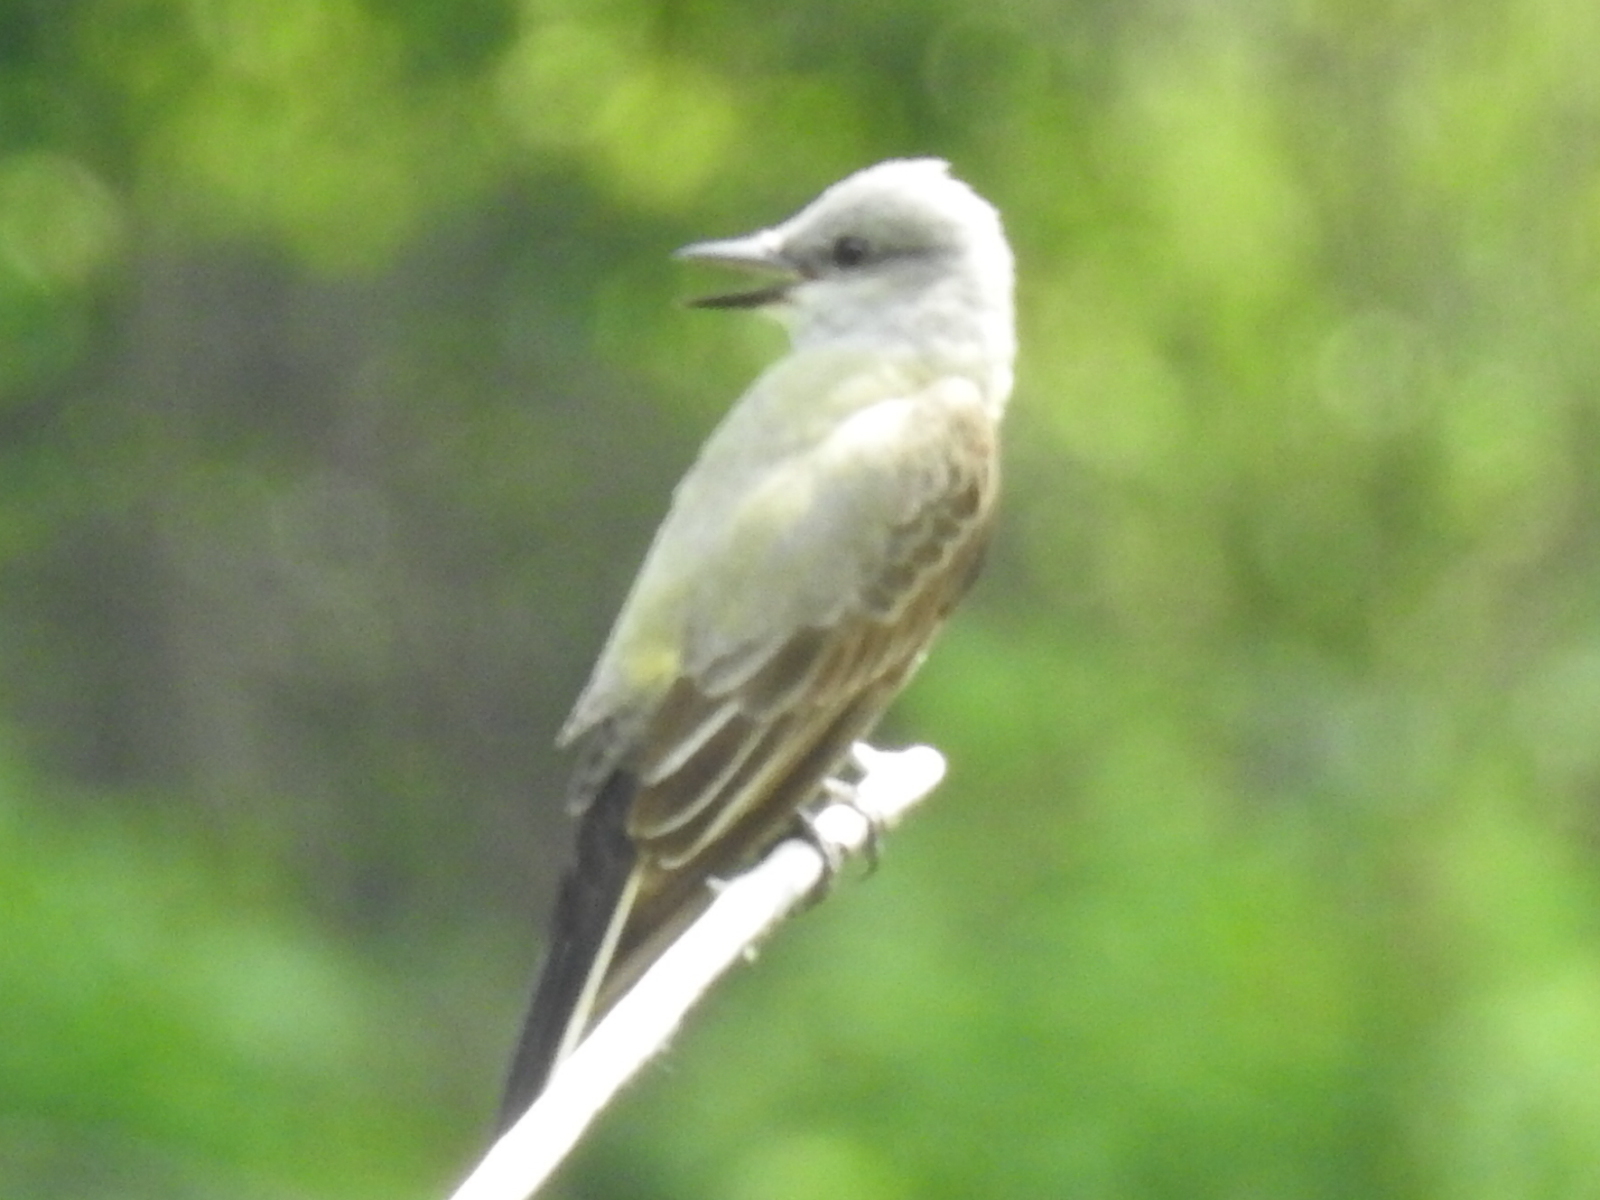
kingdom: Animalia
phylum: Chordata
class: Aves
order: Passeriformes
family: Tyrannidae
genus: Tyrannus
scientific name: Tyrannus verticalis
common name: Western kingbird
